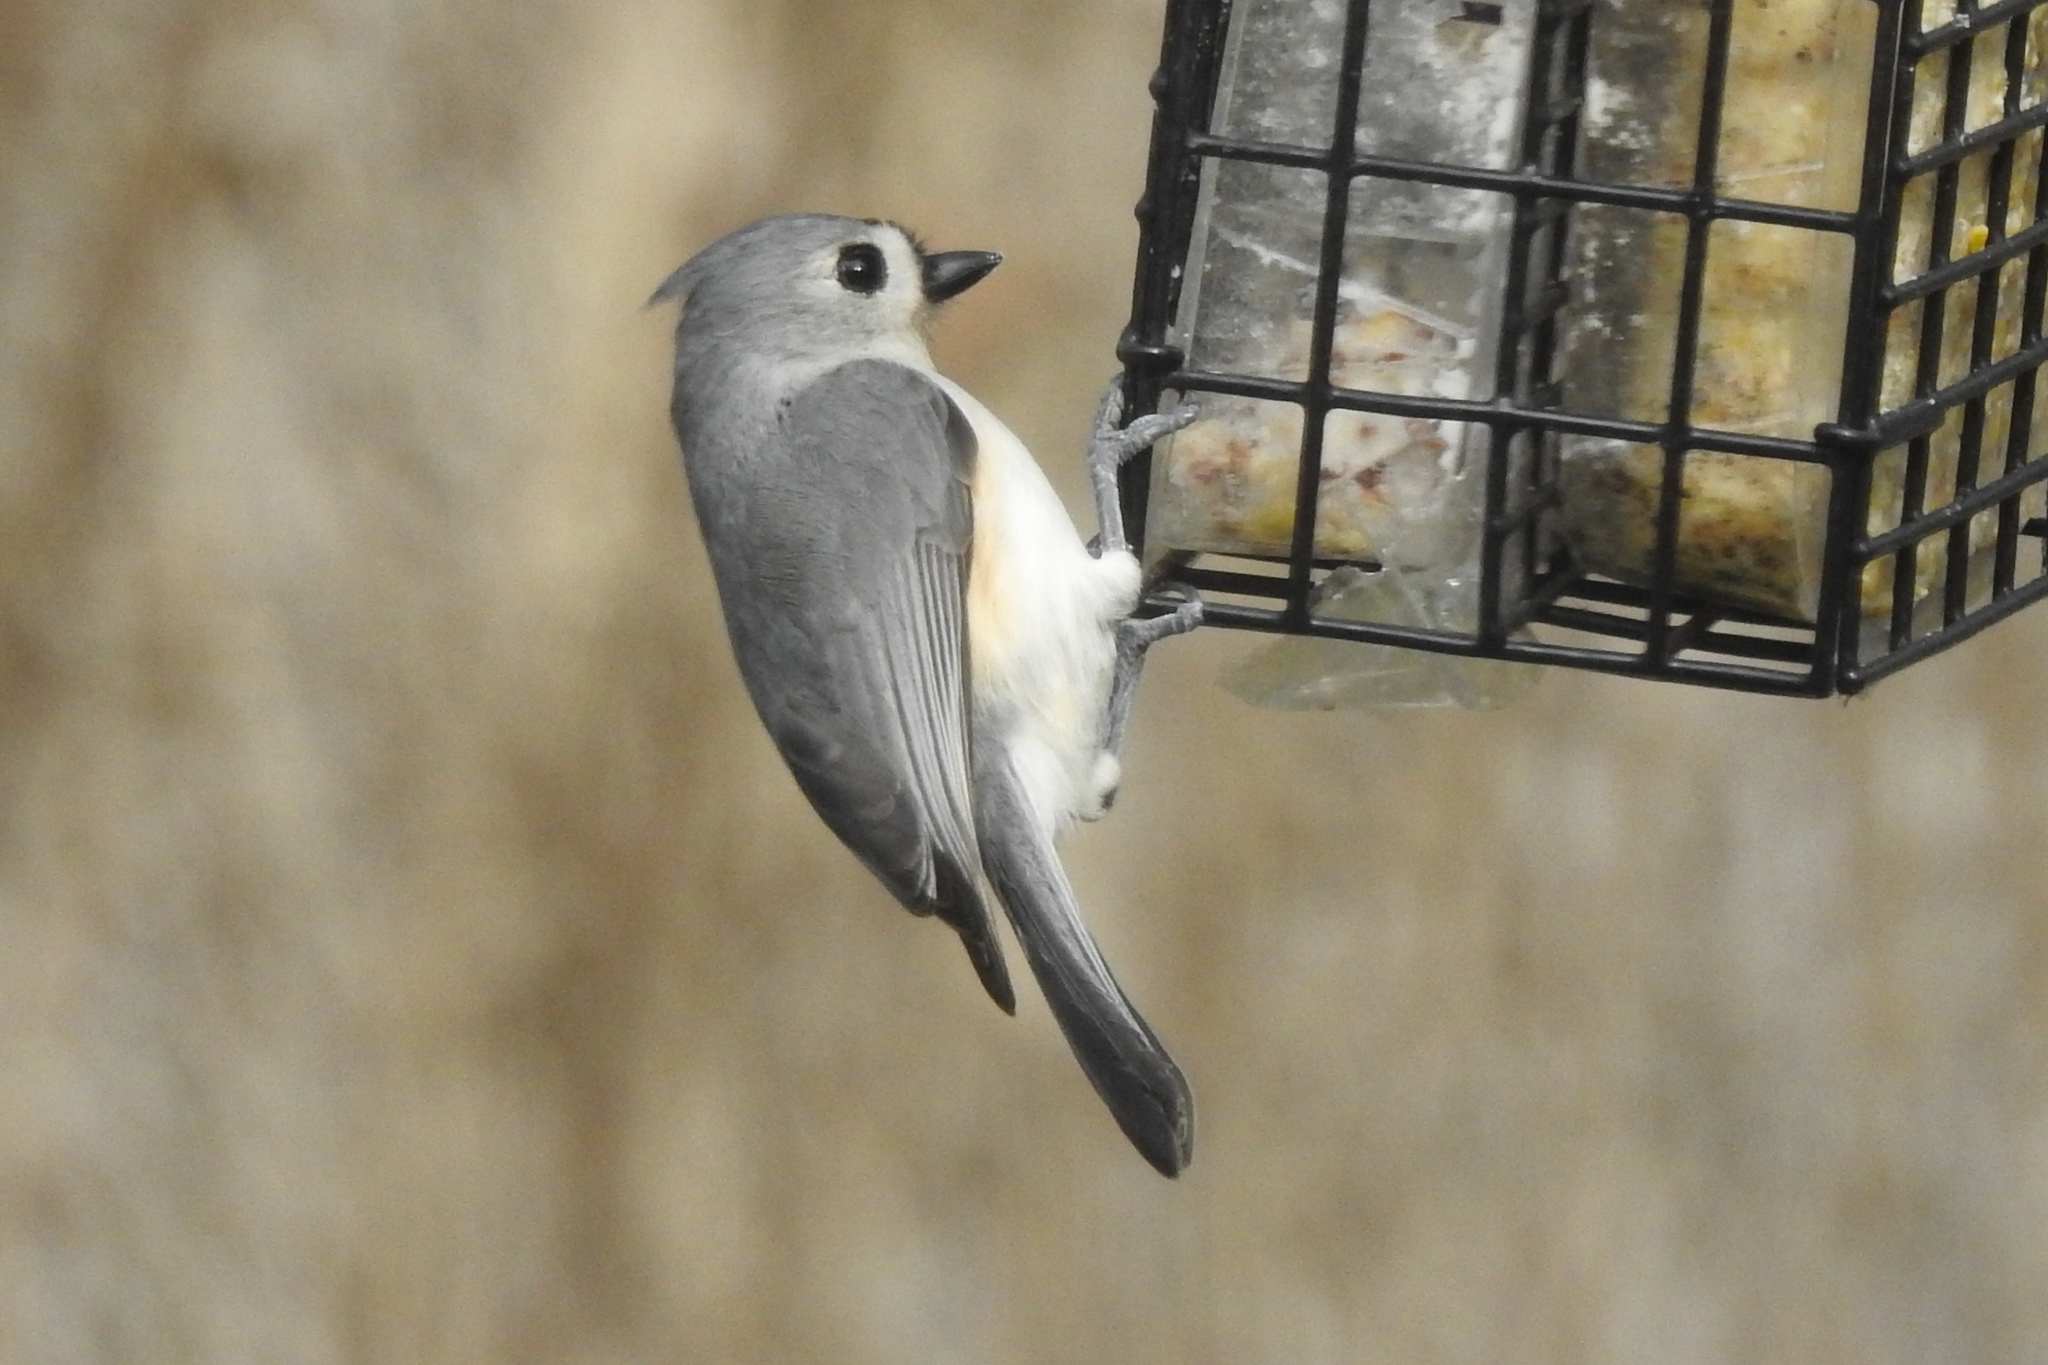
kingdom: Animalia
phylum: Chordata
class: Aves
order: Passeriformes
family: Paridae
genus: Baeolophus
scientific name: Baeolophus bicolor
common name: Tufted titmouse
